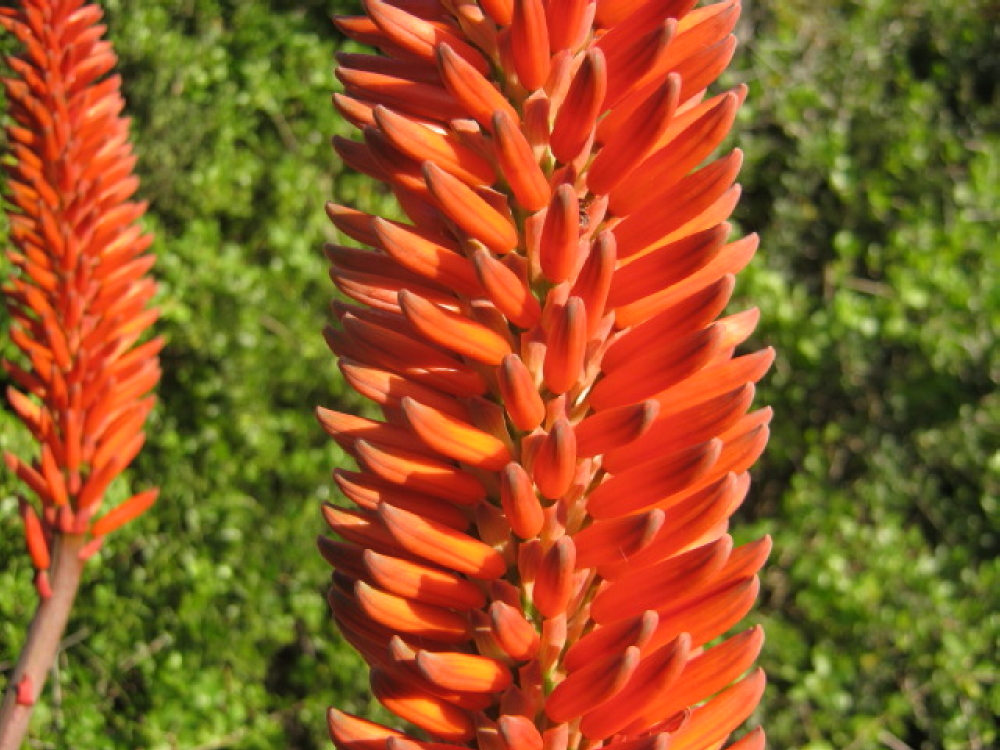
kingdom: Plantae
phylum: Tracheophyta
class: Liliopsida
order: Asparagales
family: Asphodelaceae
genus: Aloe
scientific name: Aloe ferox
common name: Bitter aloe
